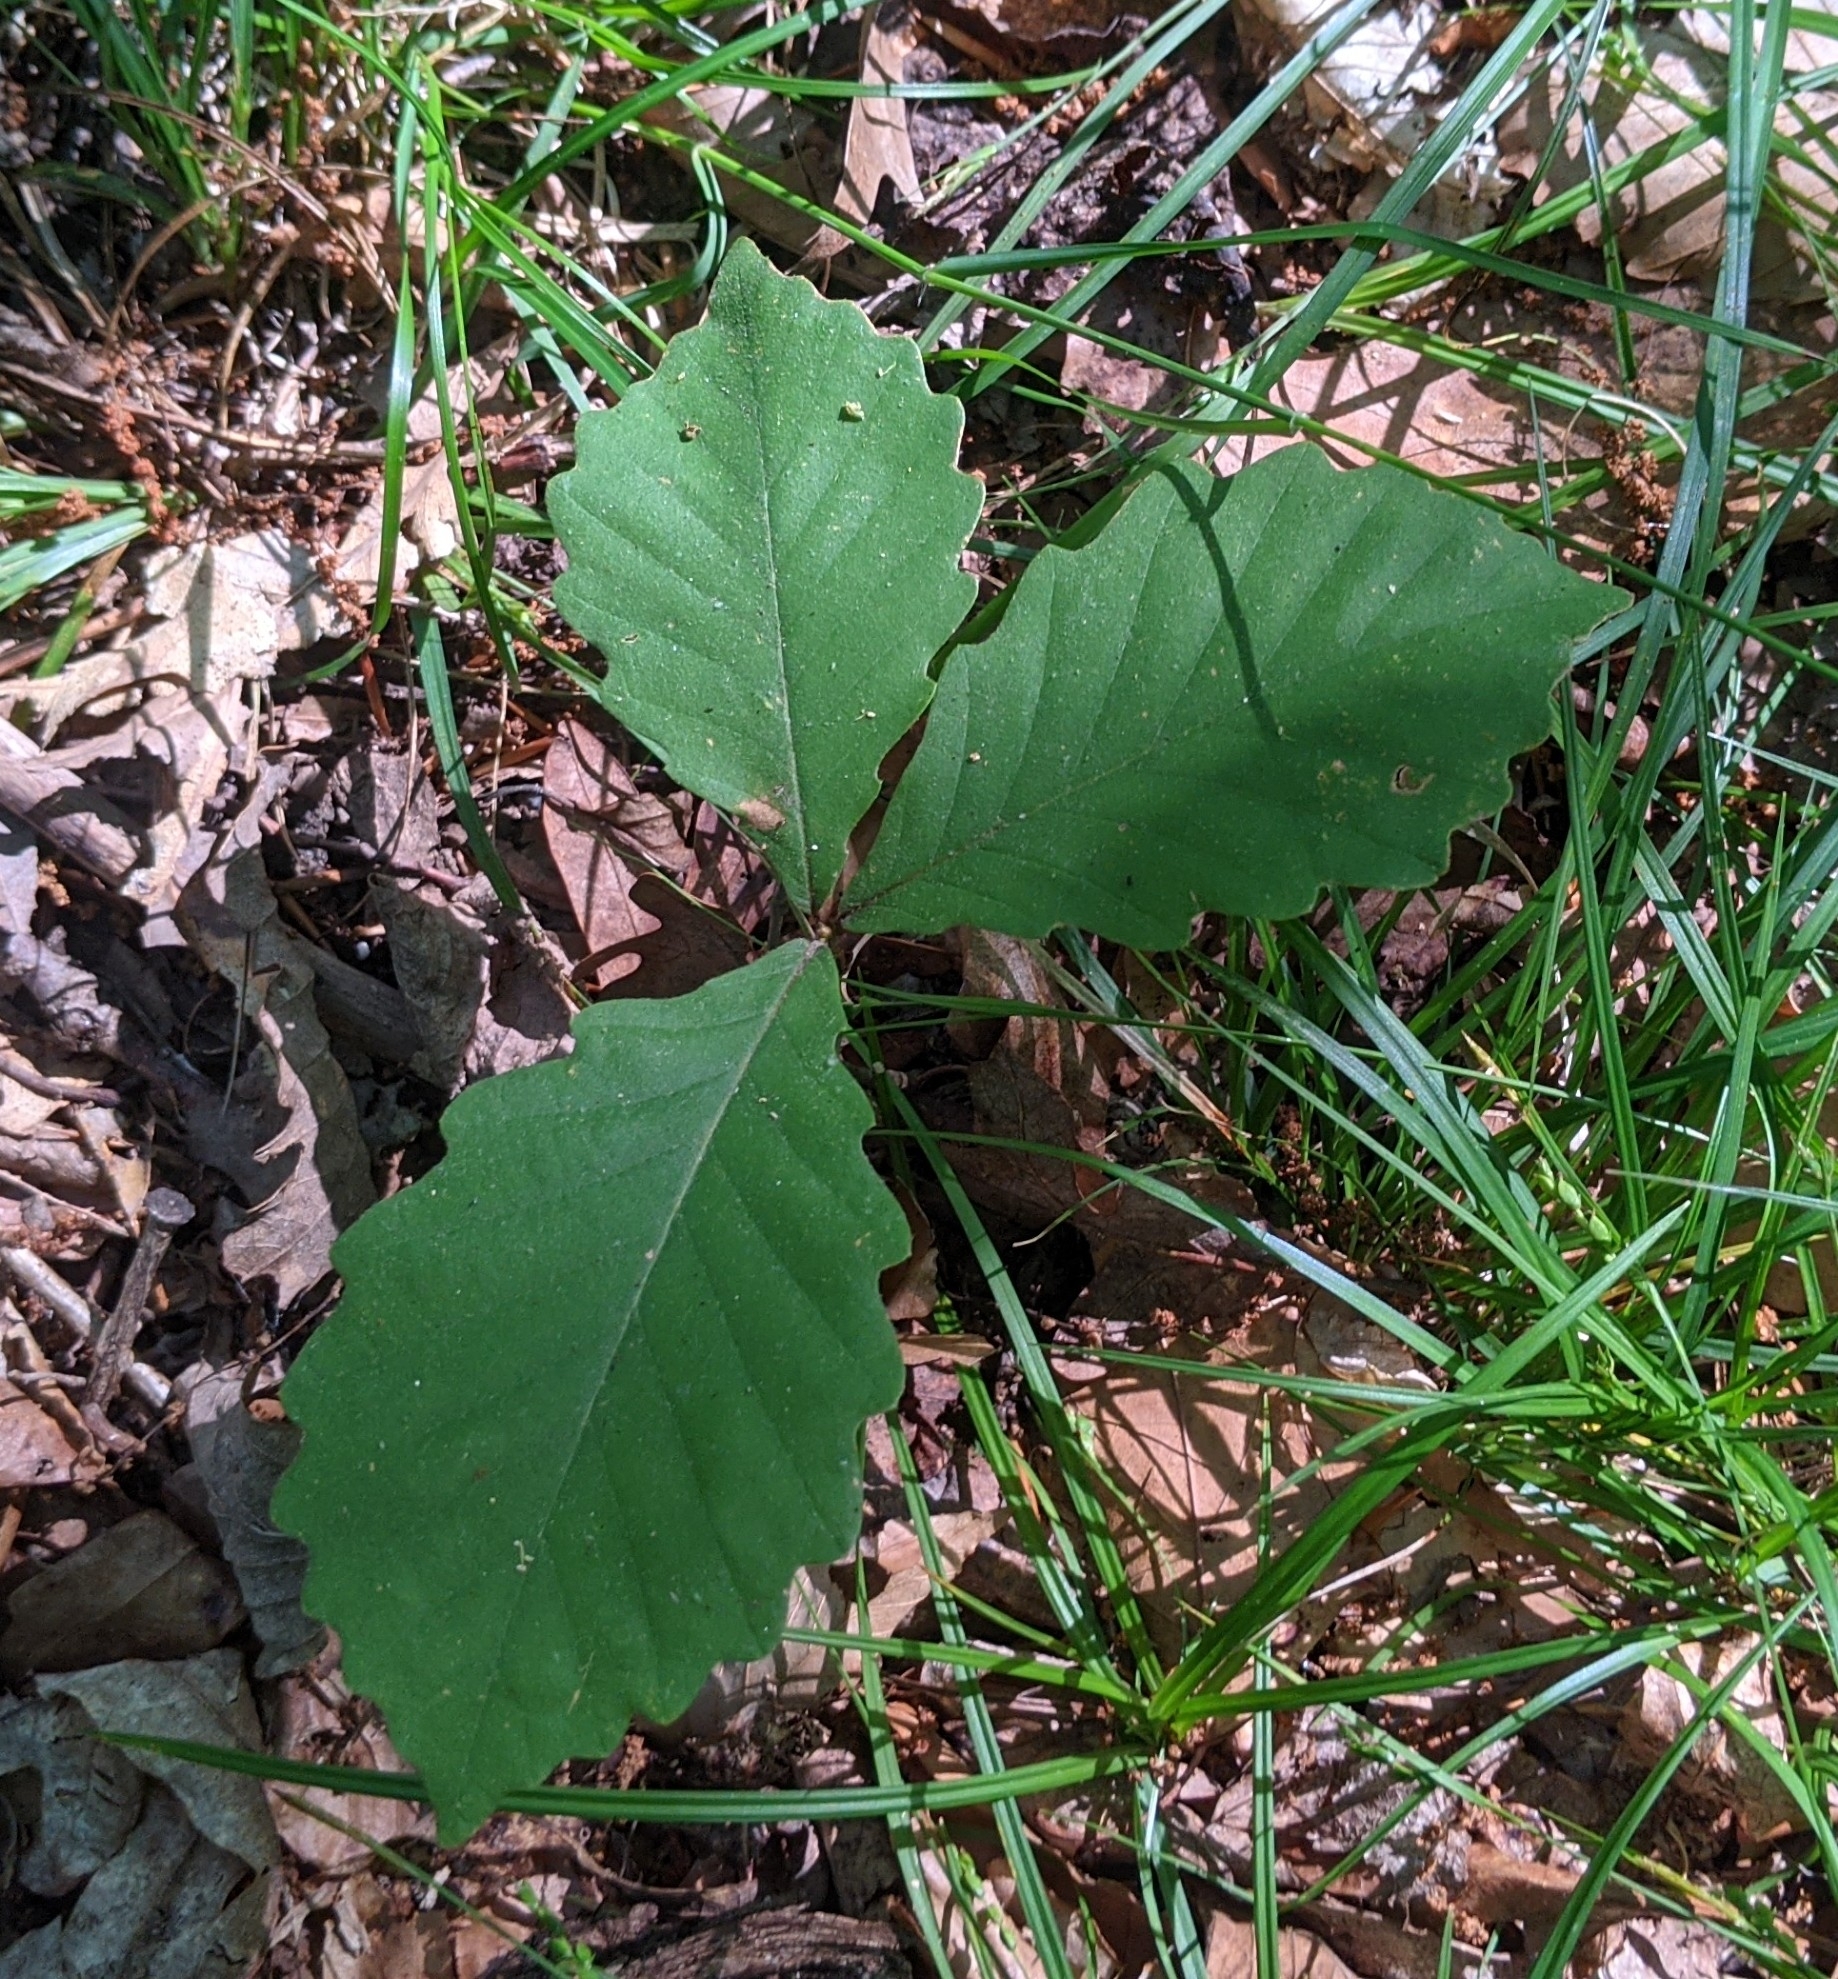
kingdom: Plantae
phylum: Tracheophyta
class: Magnoliopsida
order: Fagales
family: Fagaceae
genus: Quercus
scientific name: Quercus montana
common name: Chestnut oak
